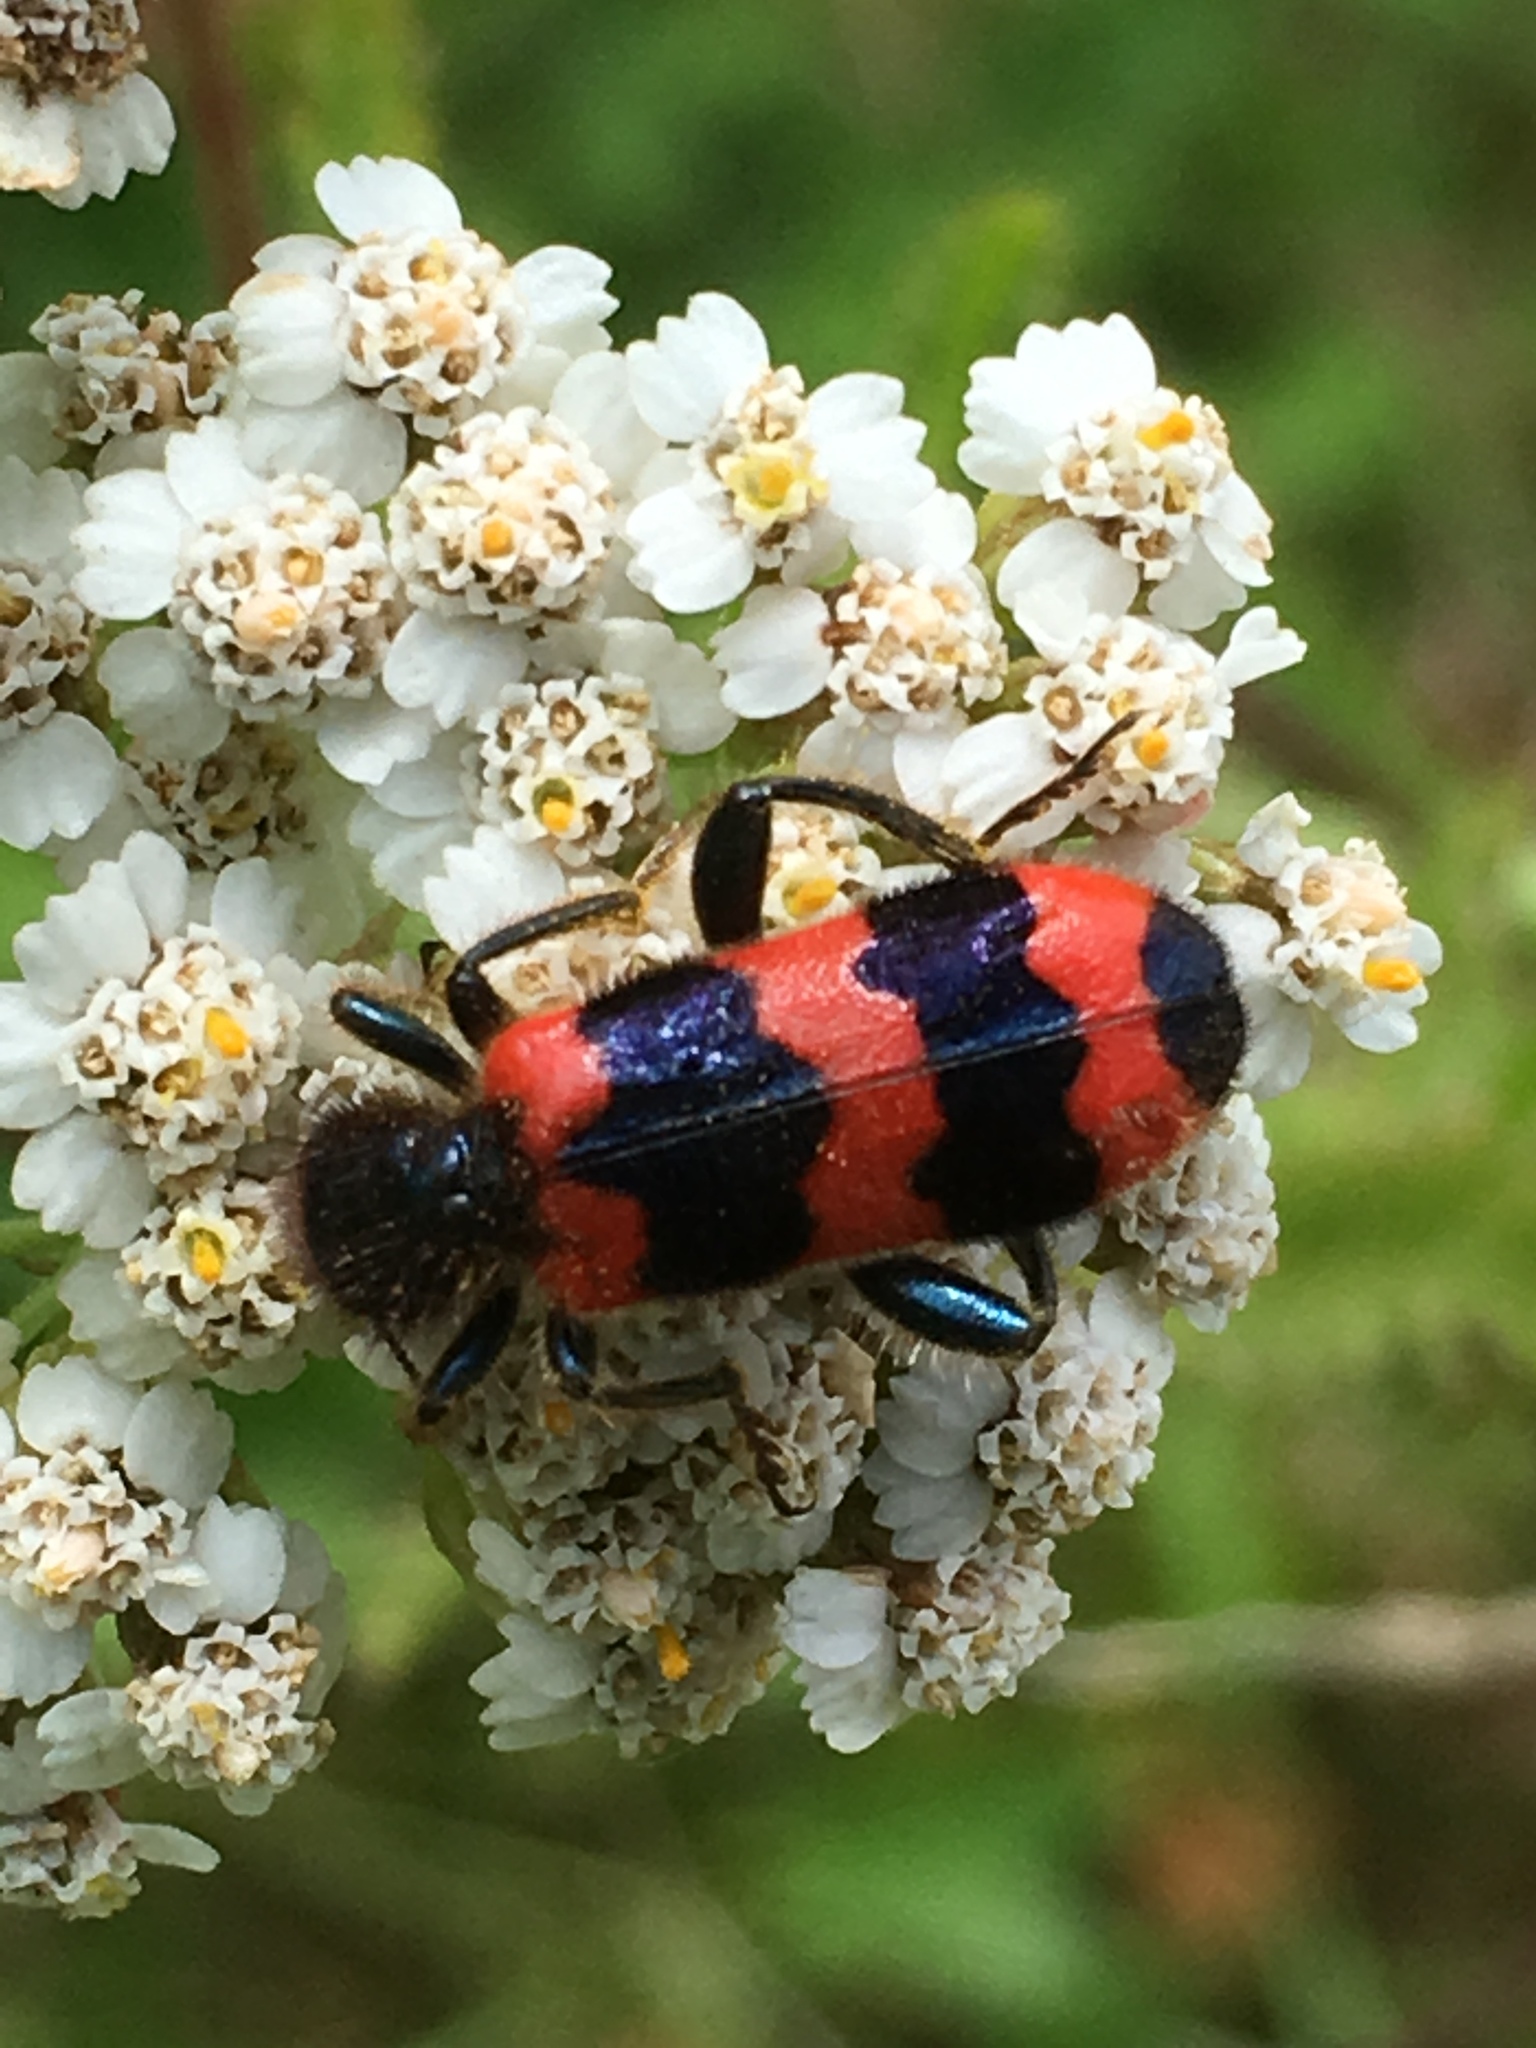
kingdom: Animalia
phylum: Arthropoda
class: Insecta
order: Coleoptera
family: Cleridae
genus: Trichodes
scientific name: Trichodes apiarius
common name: Bee-eating beetle
